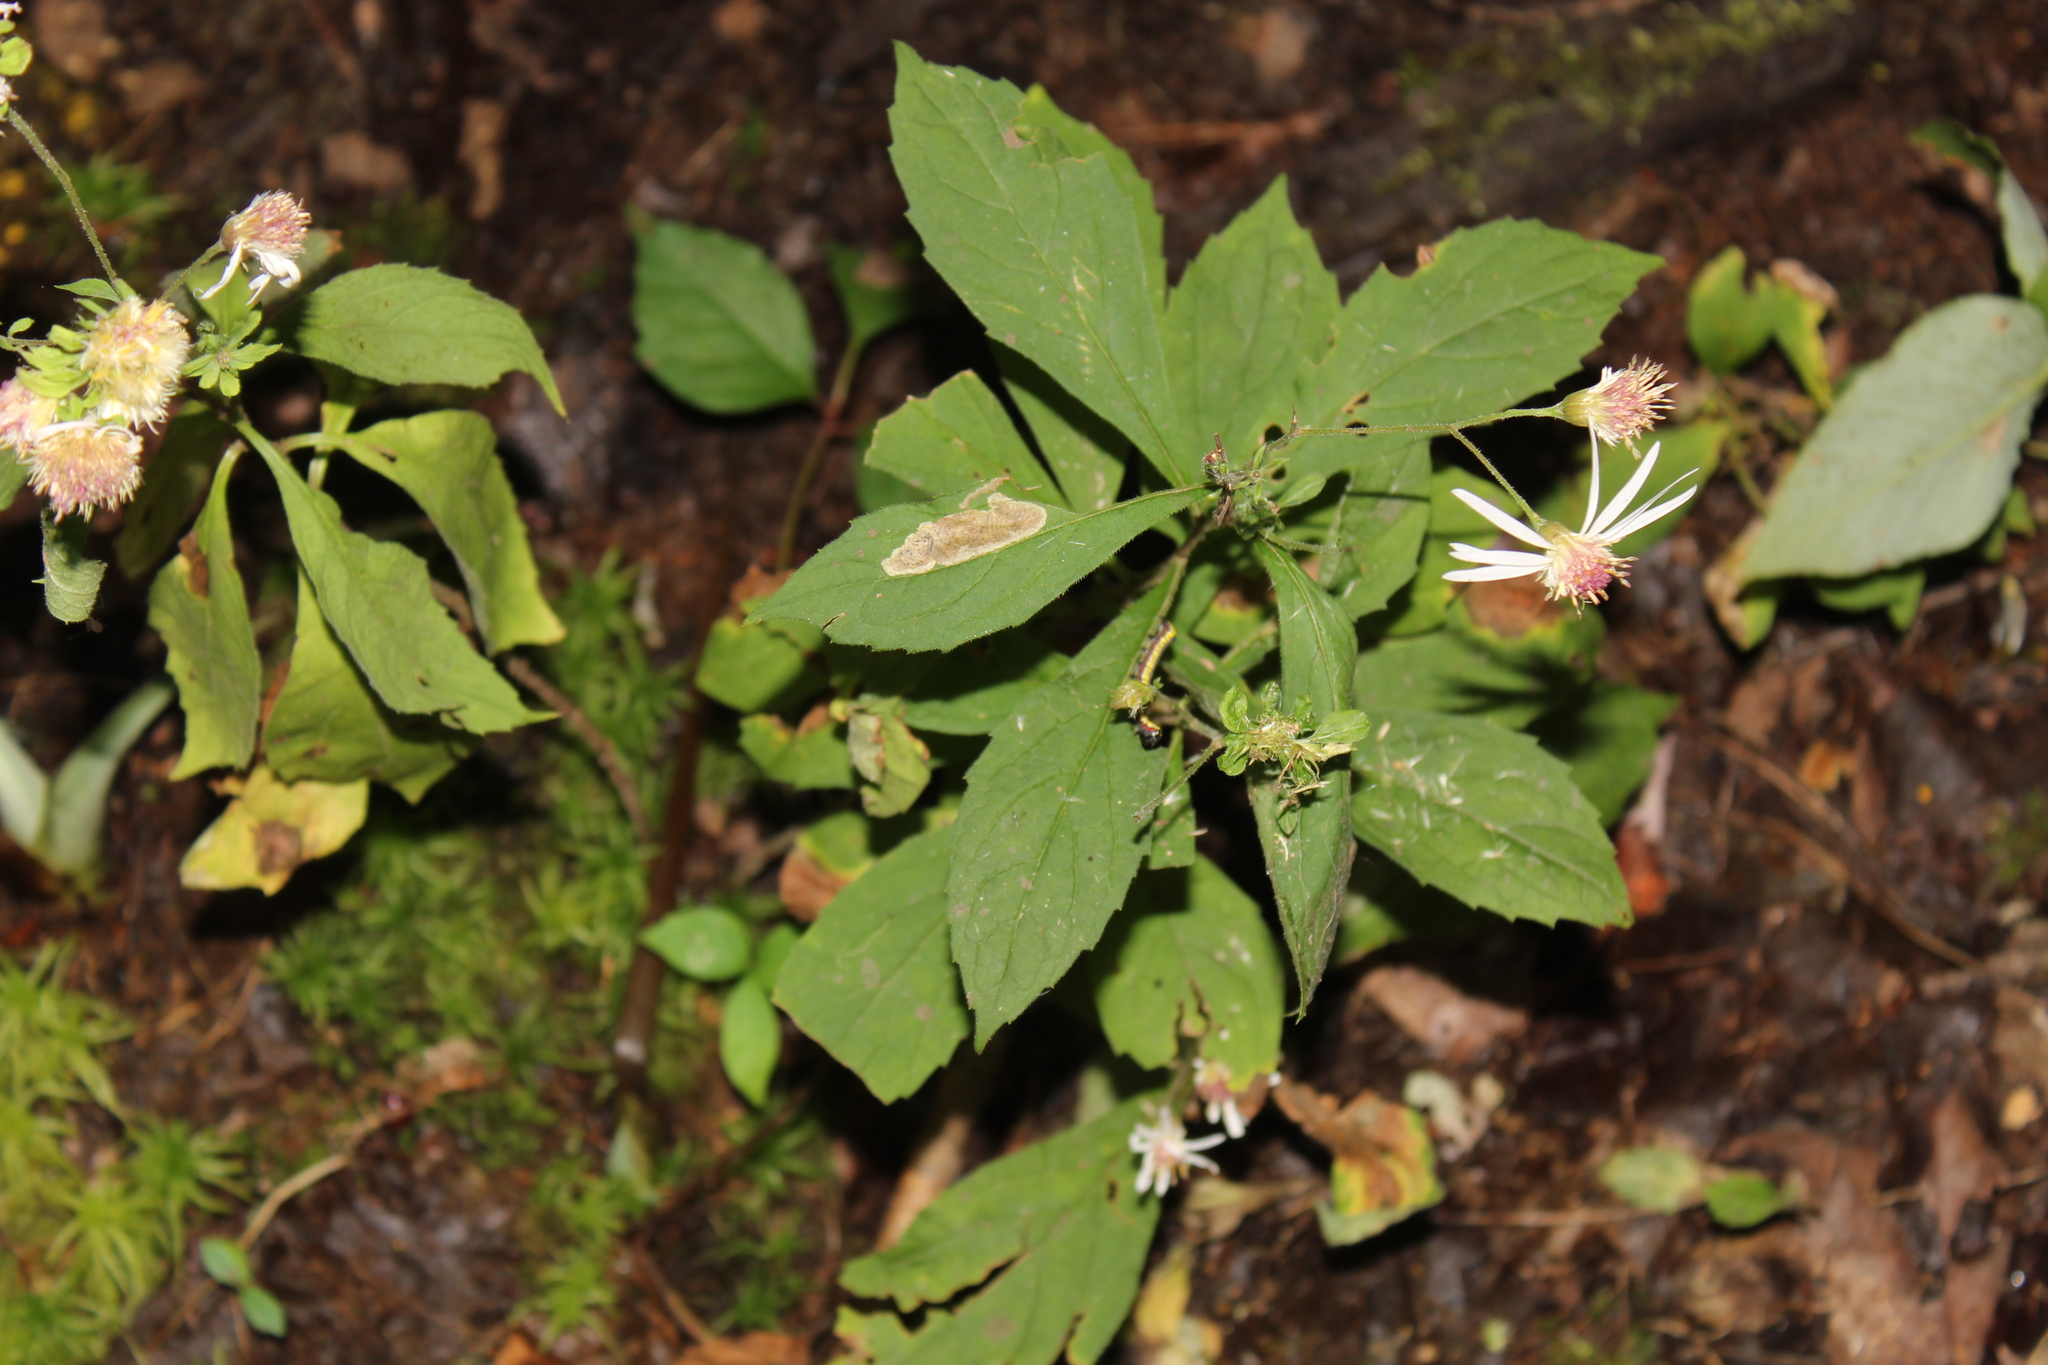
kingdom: Plantae
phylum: Tracheophyta
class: Magnoliopsida
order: Asterales
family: Asteraceae
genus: Oclemena
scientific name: Oclemena acuminata
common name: Mountain aster
